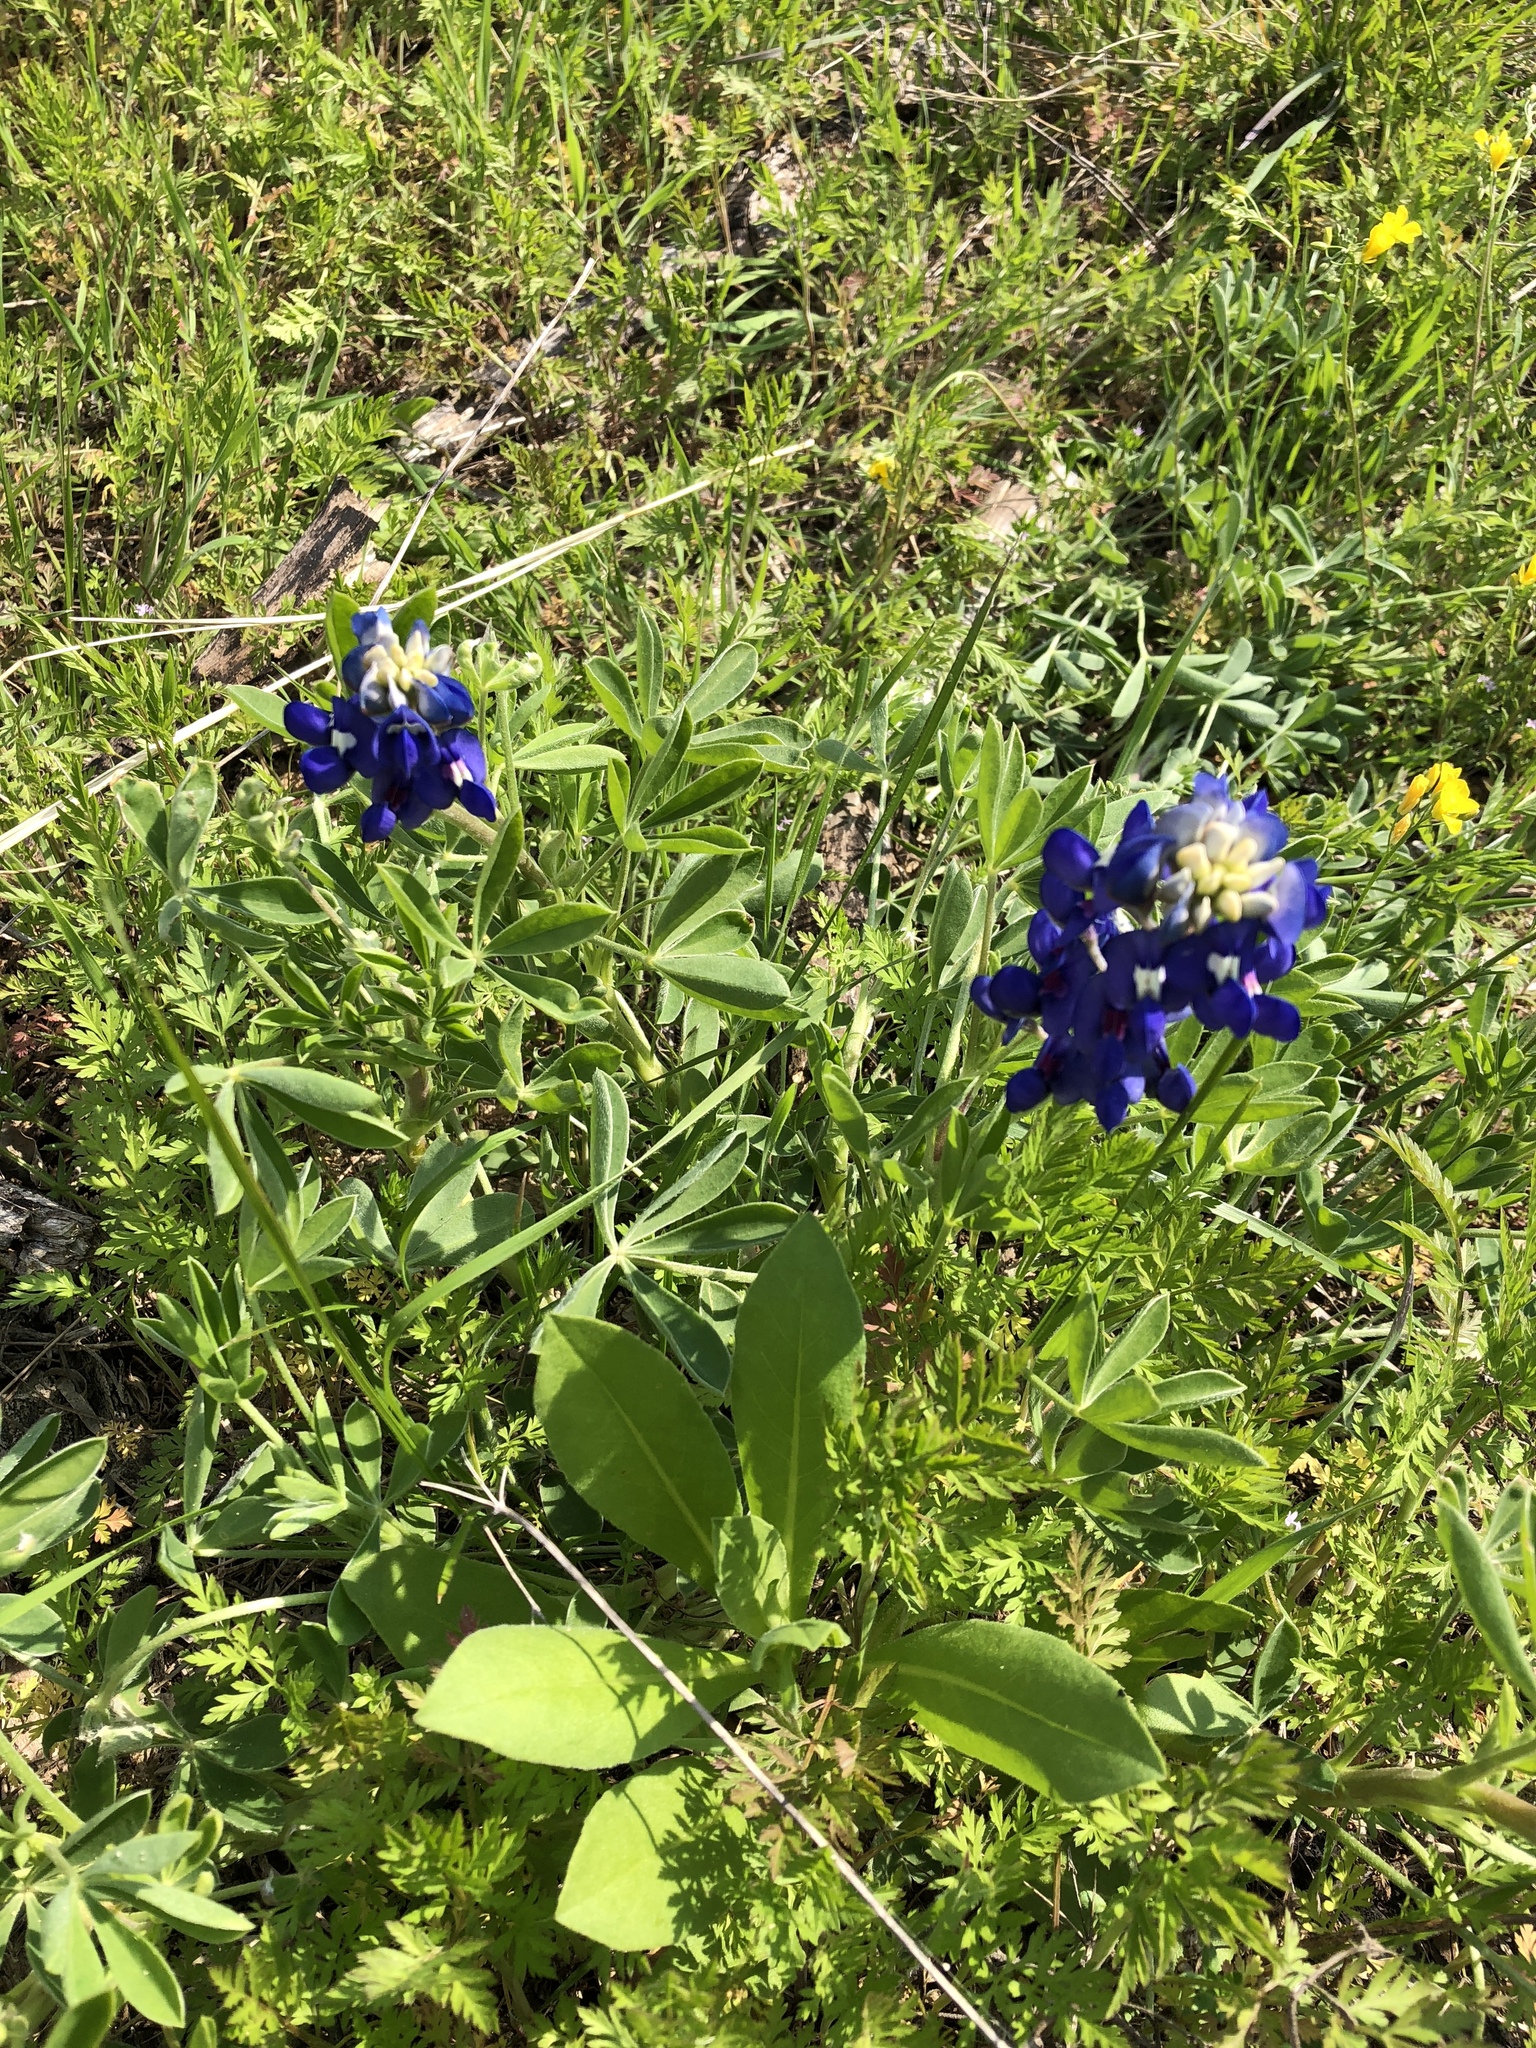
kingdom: Plantae
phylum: Tracheophyta
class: Magnoliopsida
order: Fabales
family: Fabaceae
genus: Lupinus
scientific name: Lupinus texensis
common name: Texas bluebonnet
